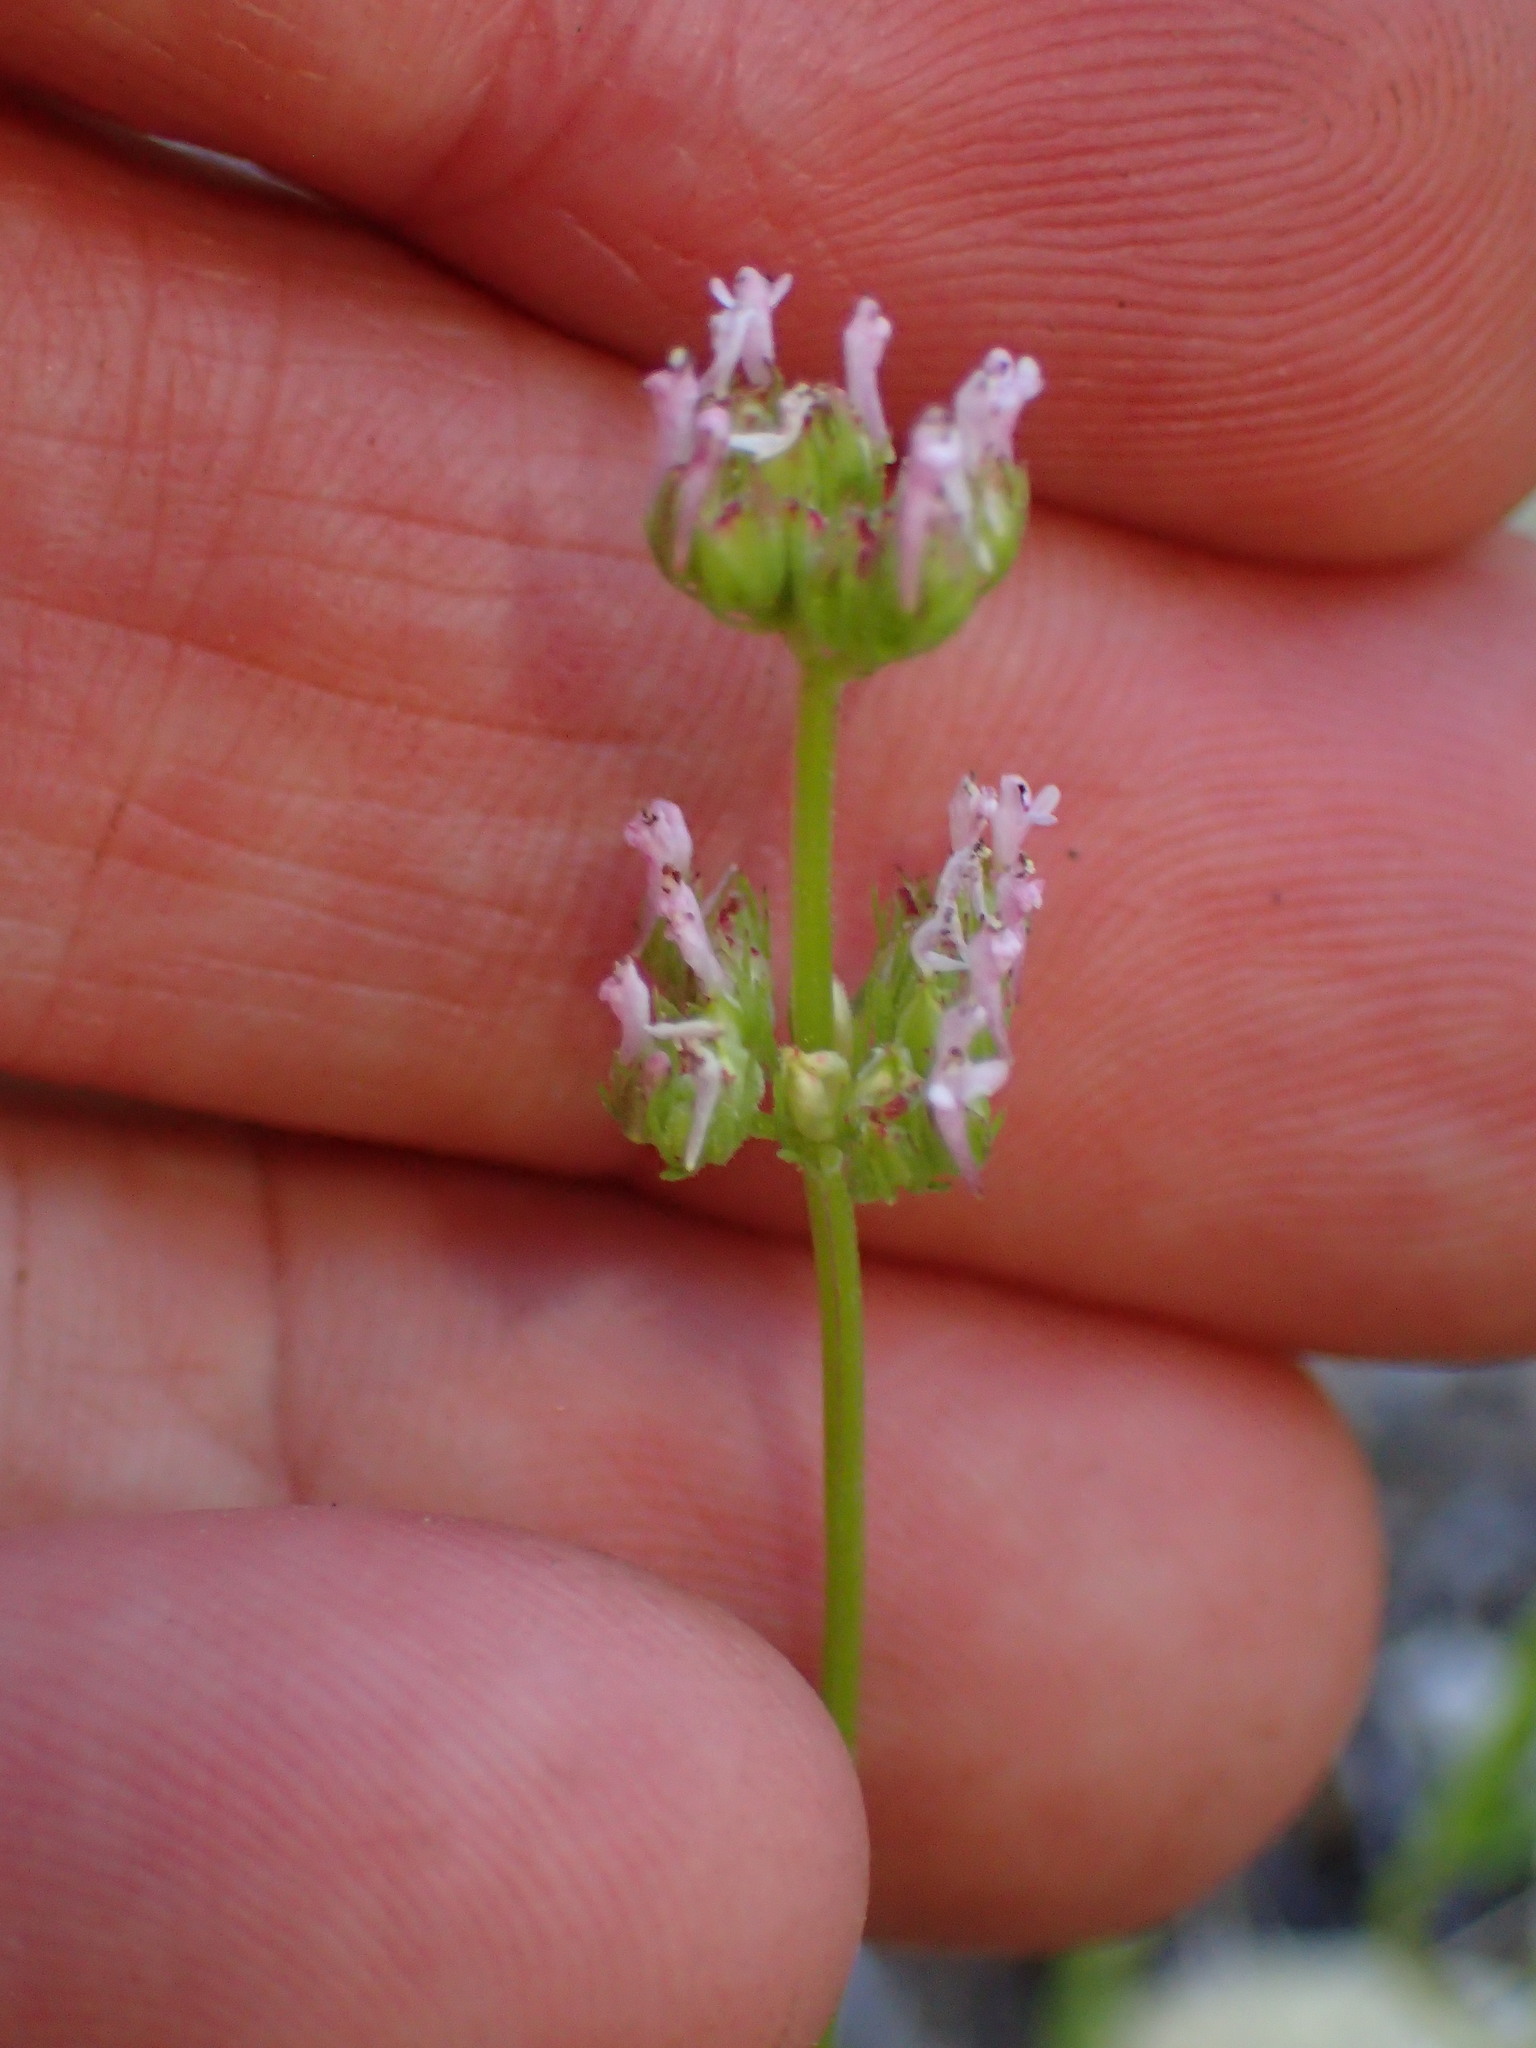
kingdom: Plantae
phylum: Tracheophyta
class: Magnoliopsida
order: Dipsacales
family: Caprifoliaceae
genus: Plectritis
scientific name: Plectritis ciliosa
